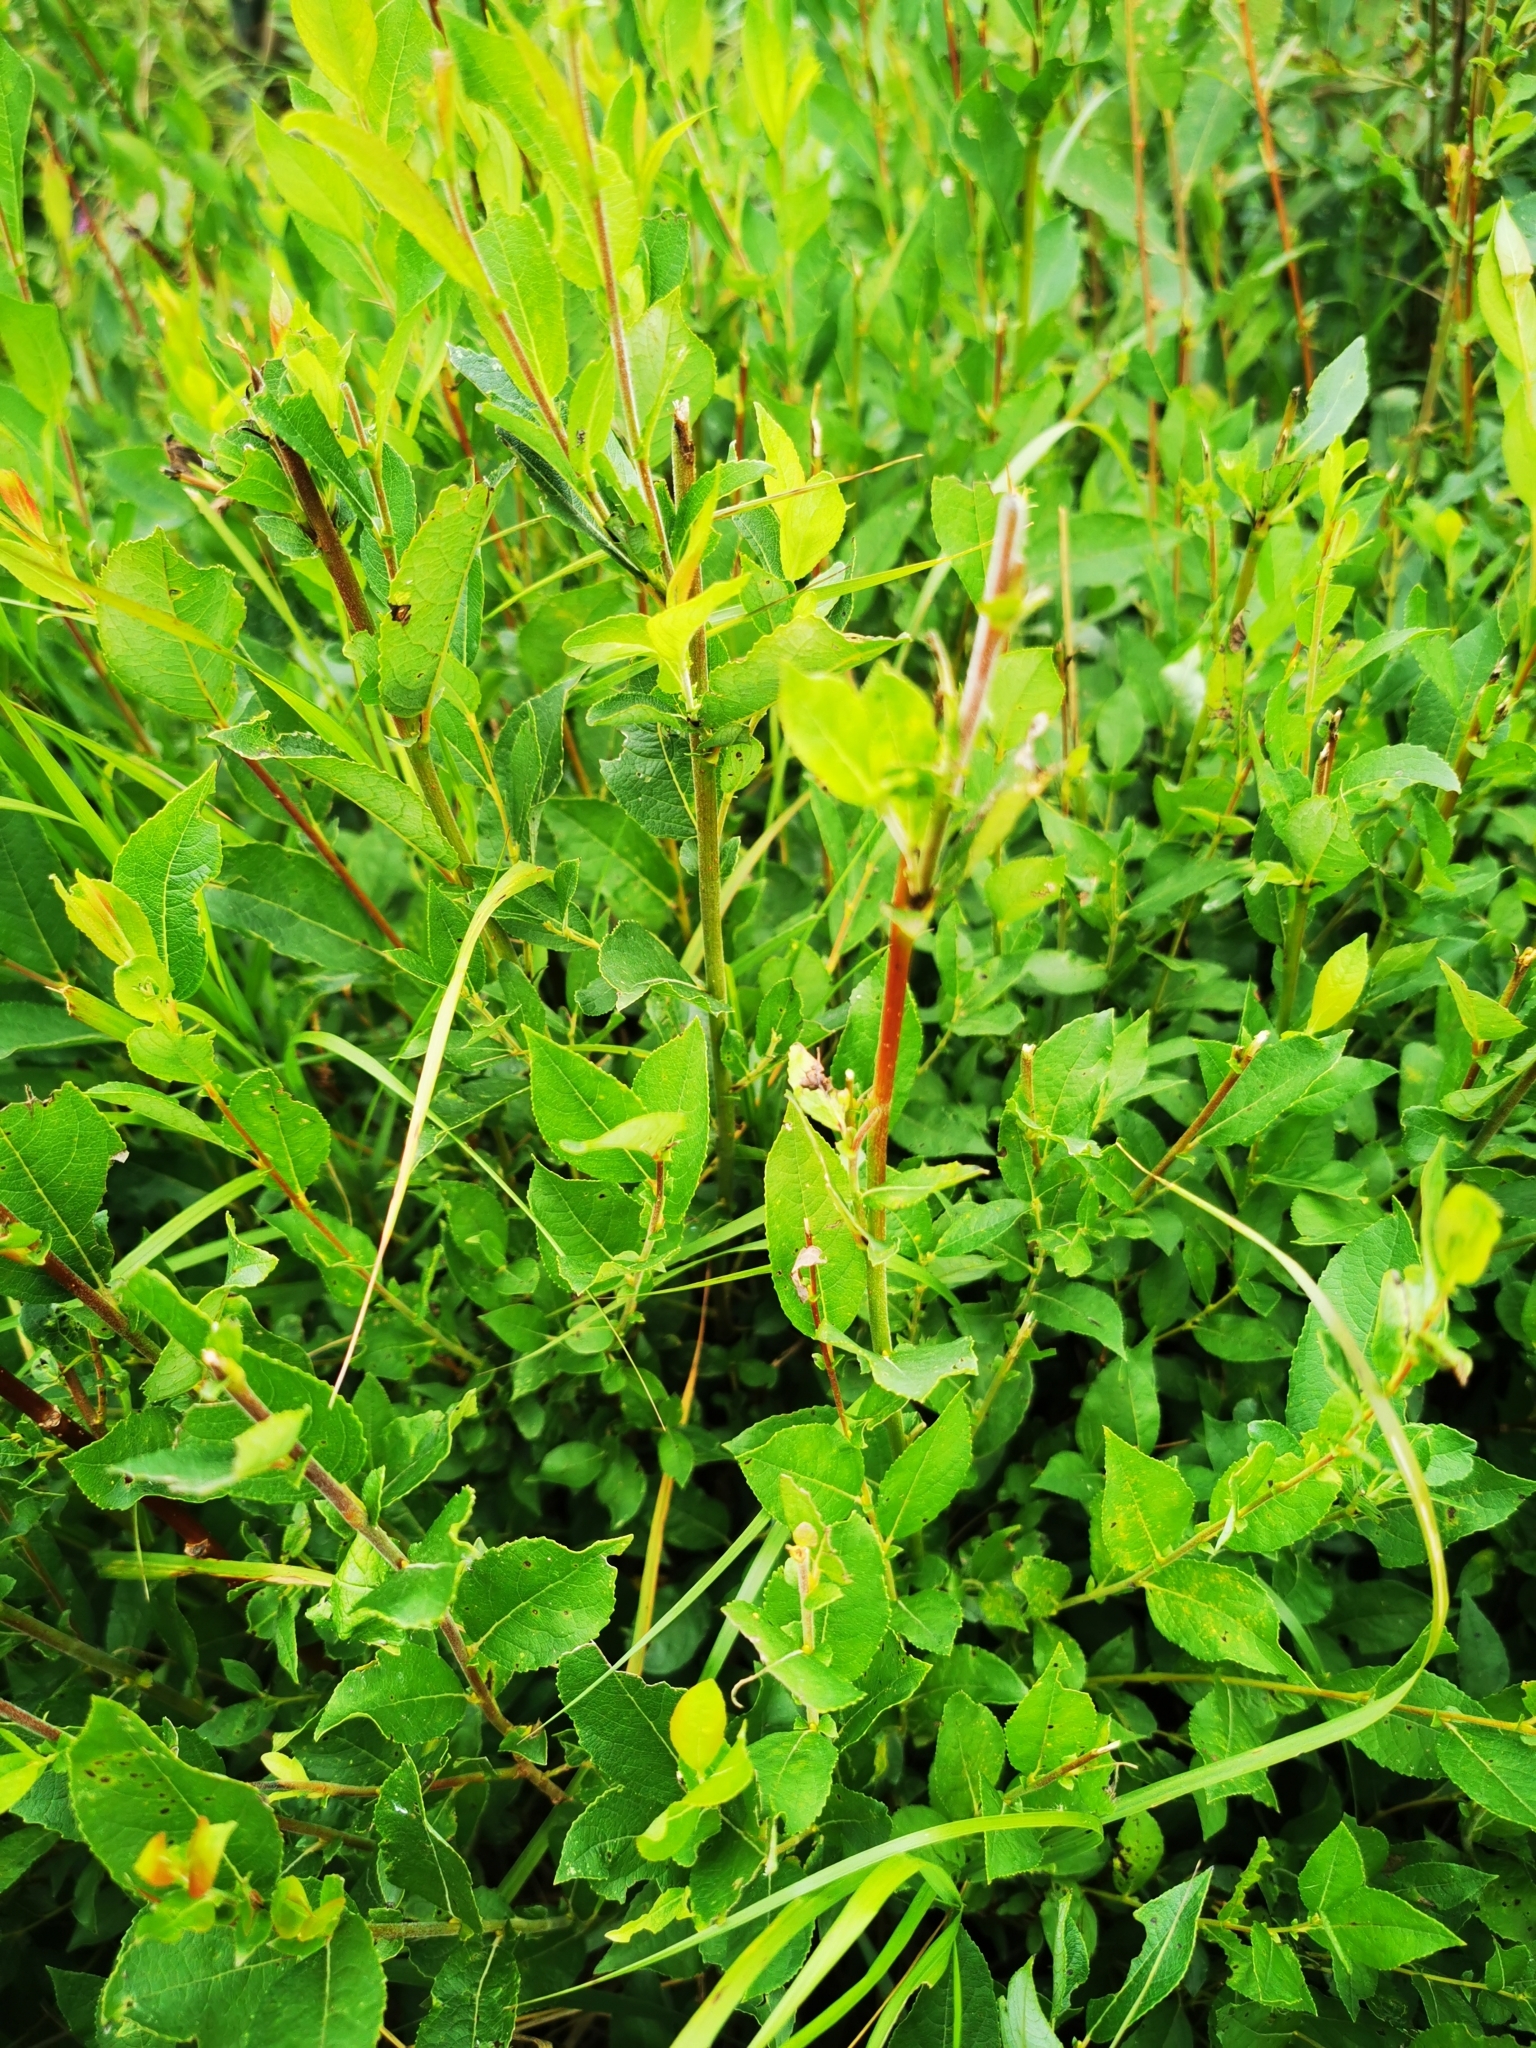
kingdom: Plantae
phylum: Tracheophyta
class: Magnoliopsida
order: Malpighiales
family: Salicaceae
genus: Salix
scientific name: Salix myrsinifolia
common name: Dark-leaved willow
